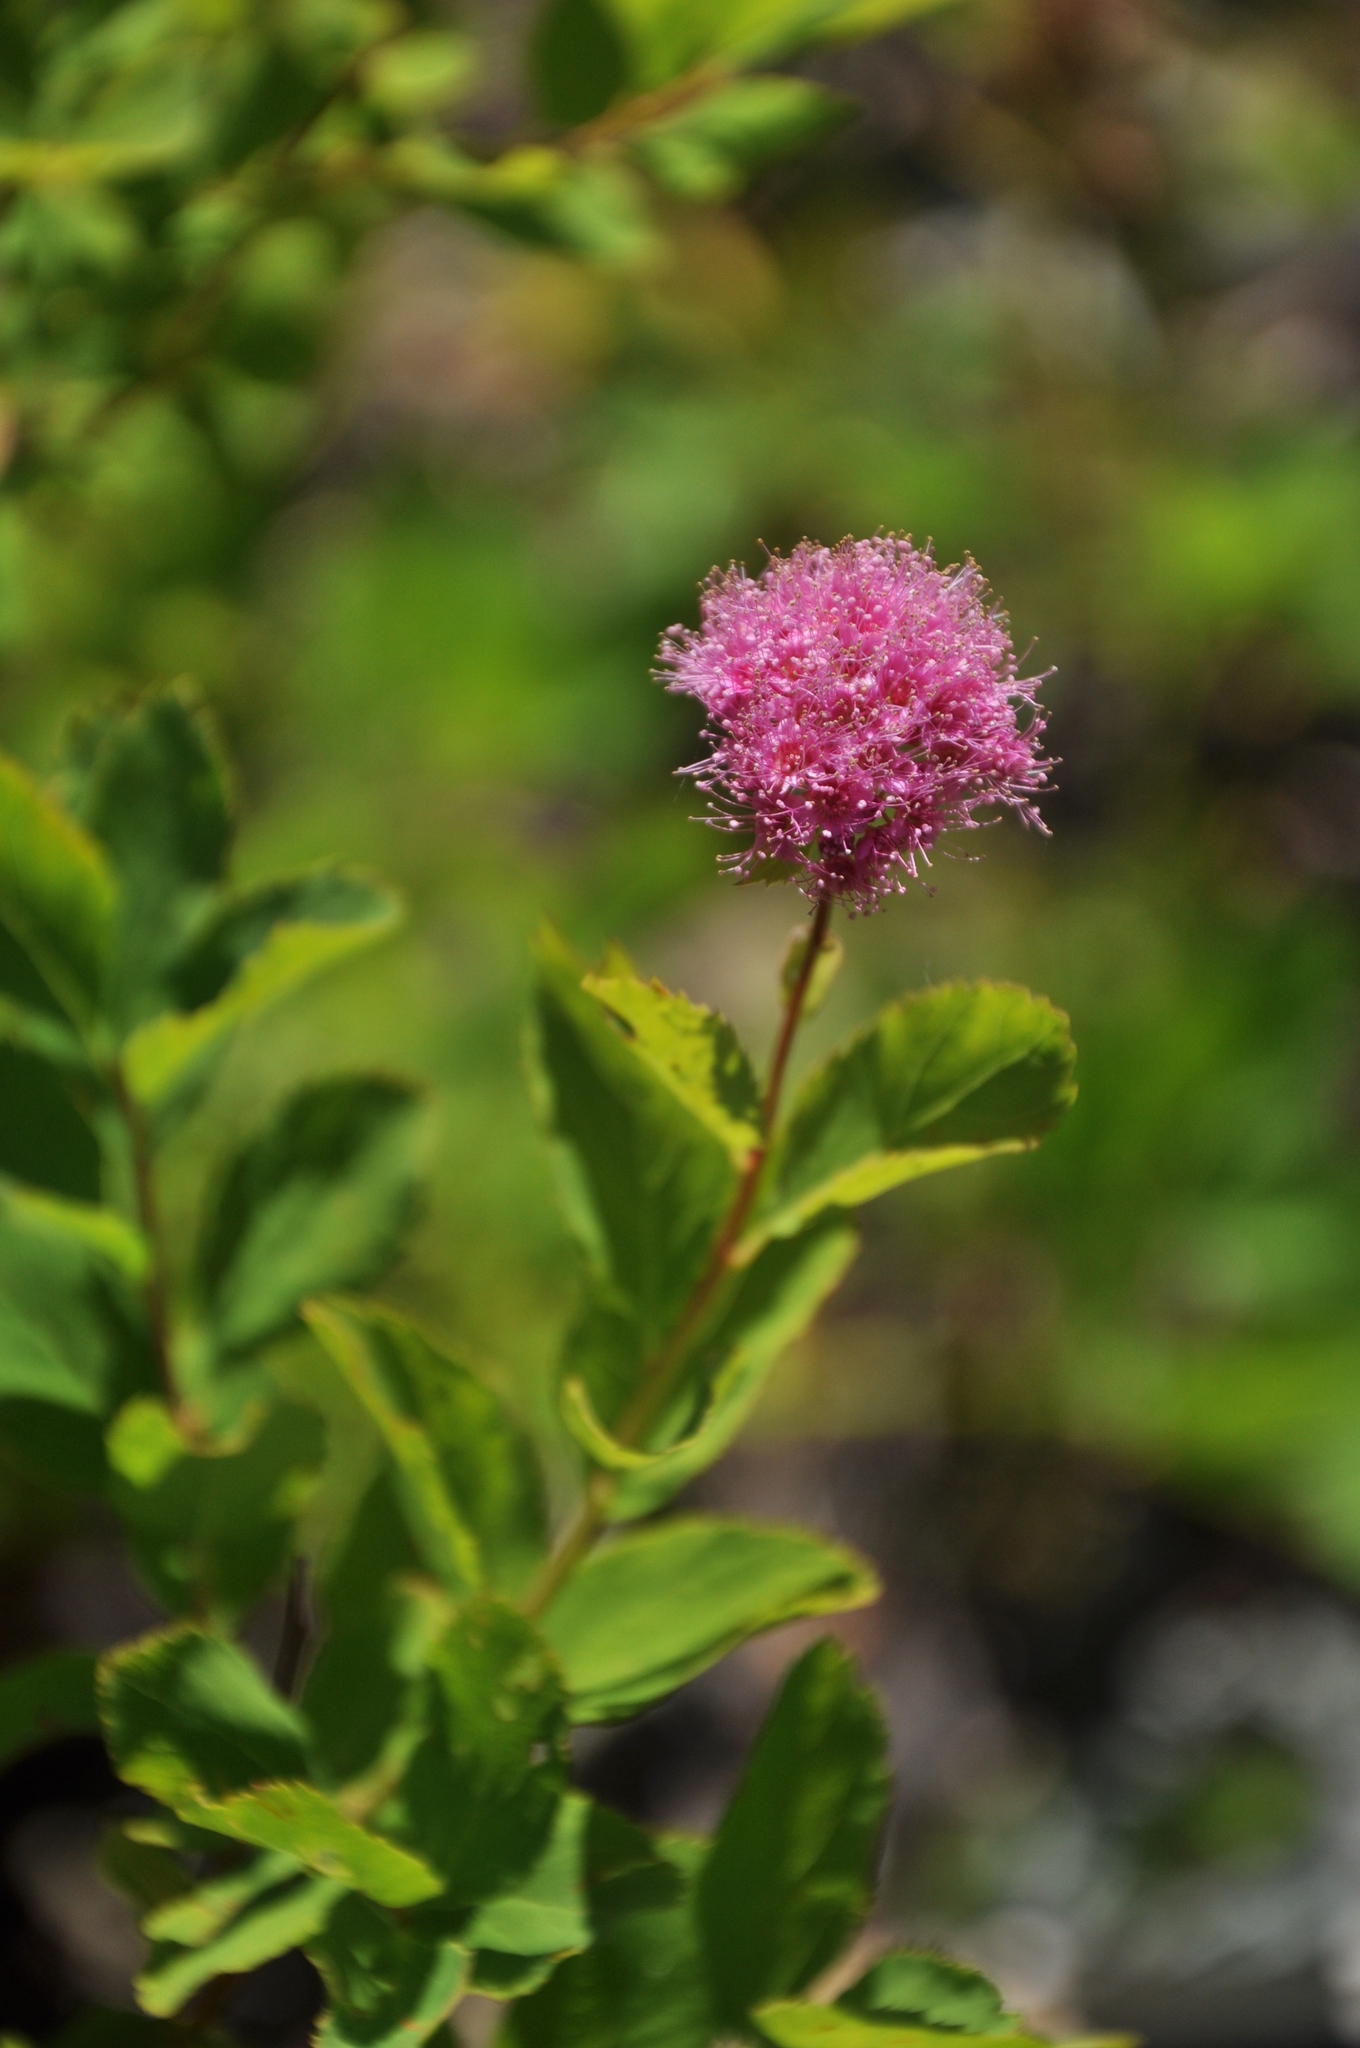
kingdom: Plantae
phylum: Tracheophyta
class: Magnoliopsida
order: Rosales
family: Rosaceae
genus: Spiraea
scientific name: Spiraea splendens
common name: Subalpine meadowsweet
